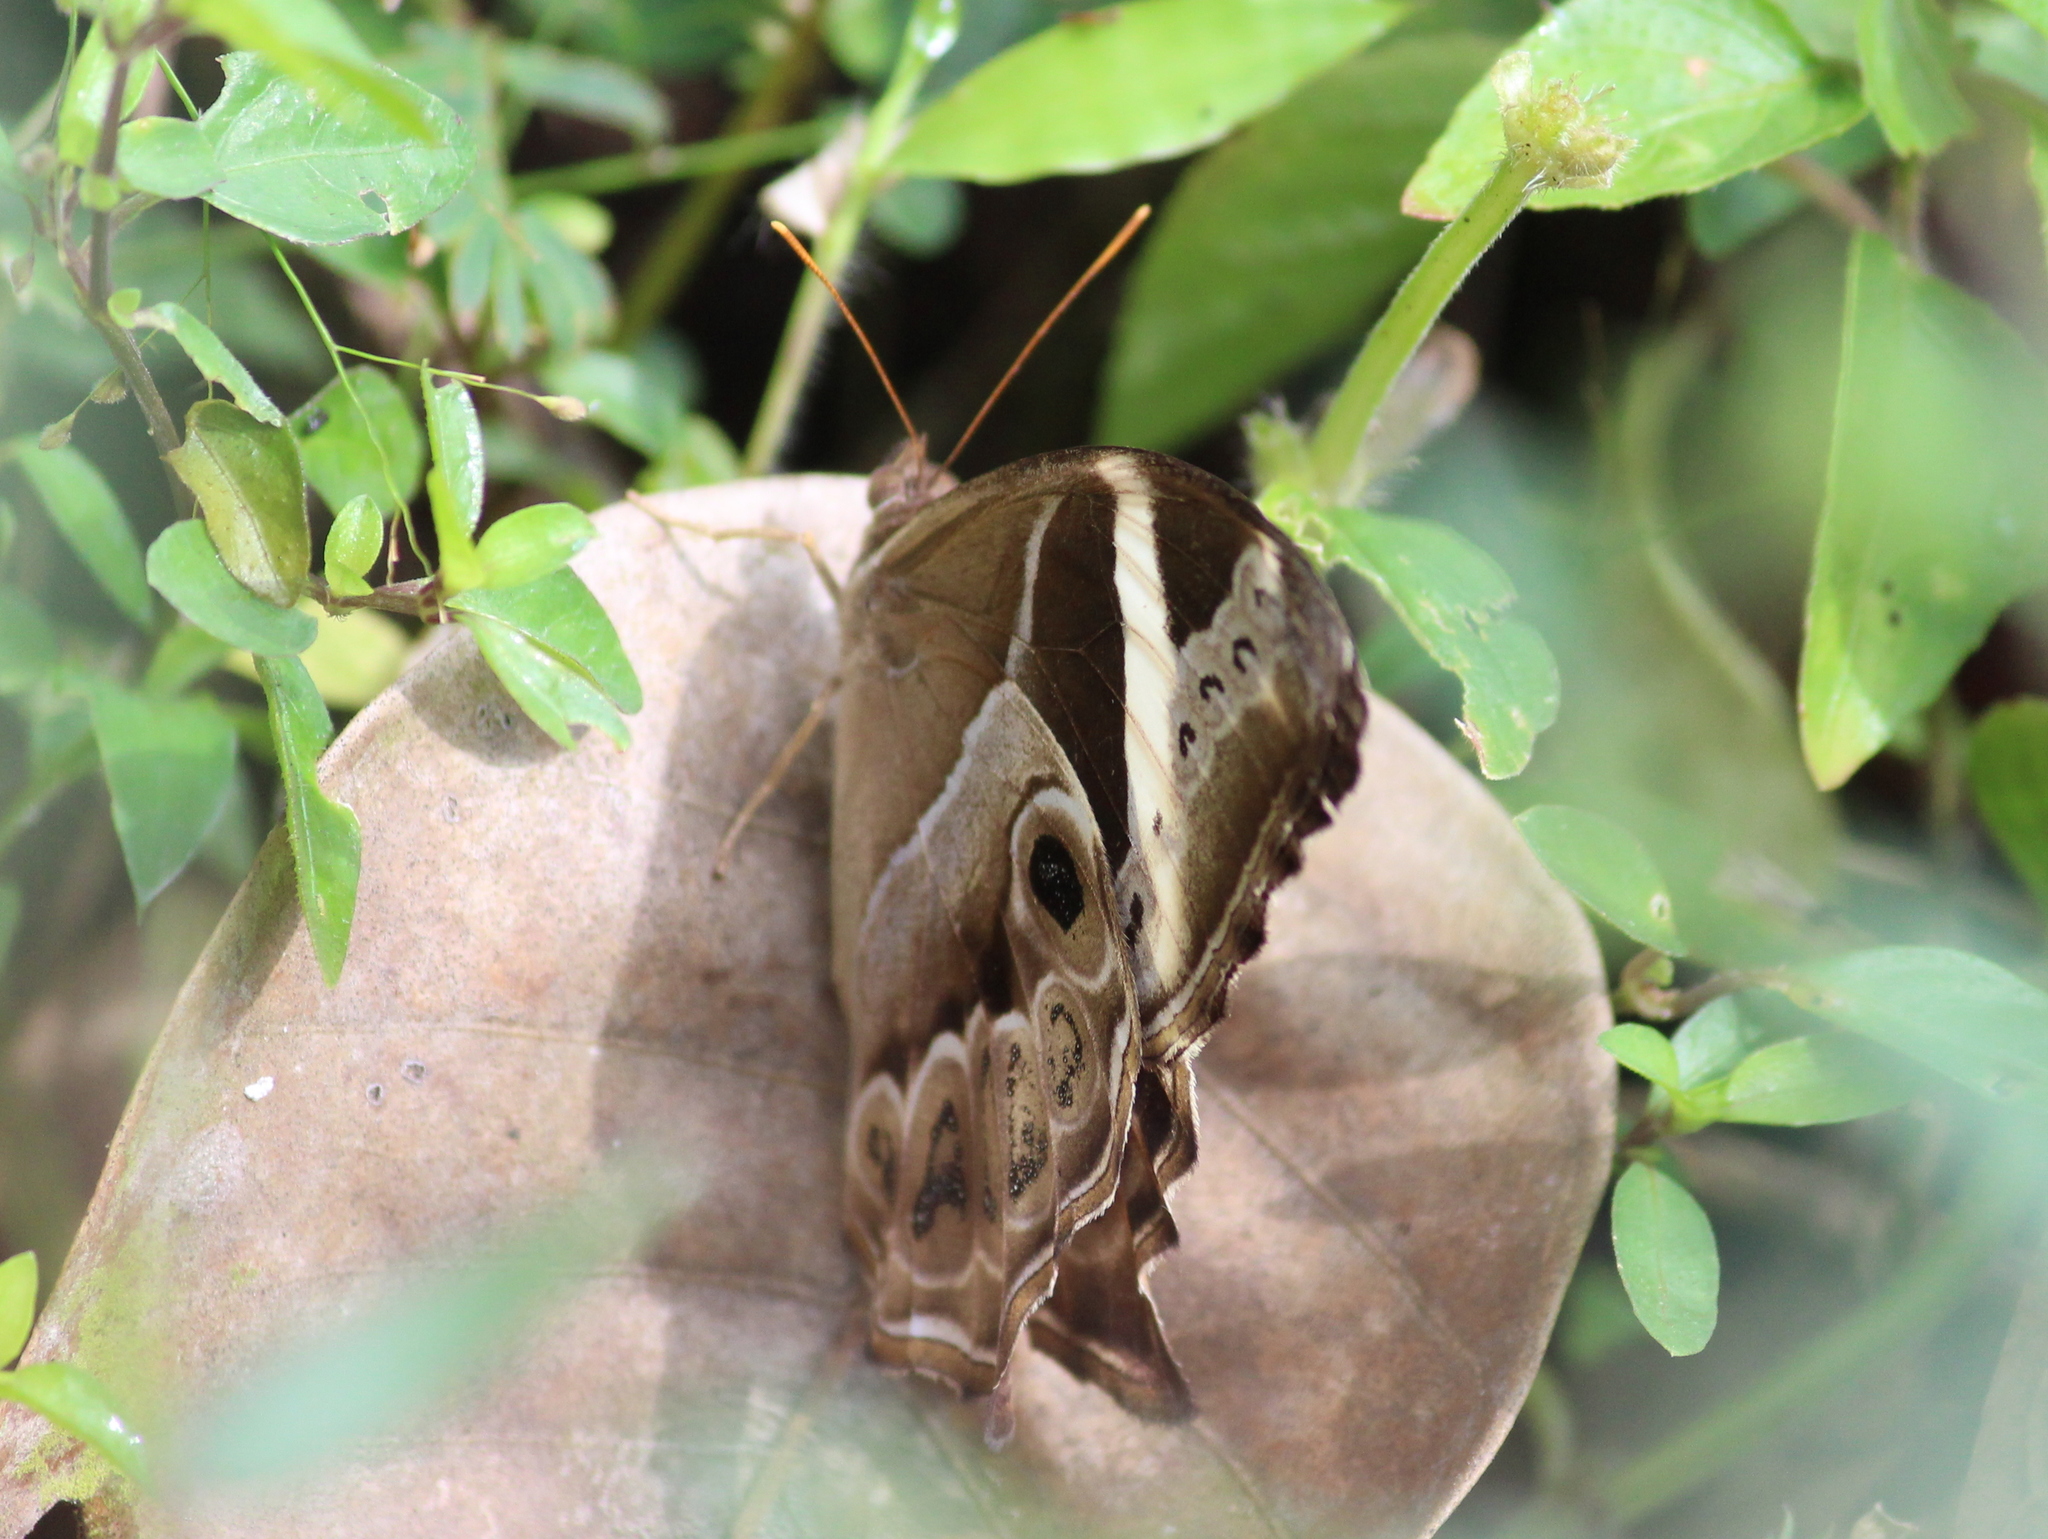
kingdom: Animalia
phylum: Arthropoda
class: Insecta
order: Lepidoptera
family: Nymphalidae
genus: Lethe
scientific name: Lethe europa
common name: Bamboo treebrown
